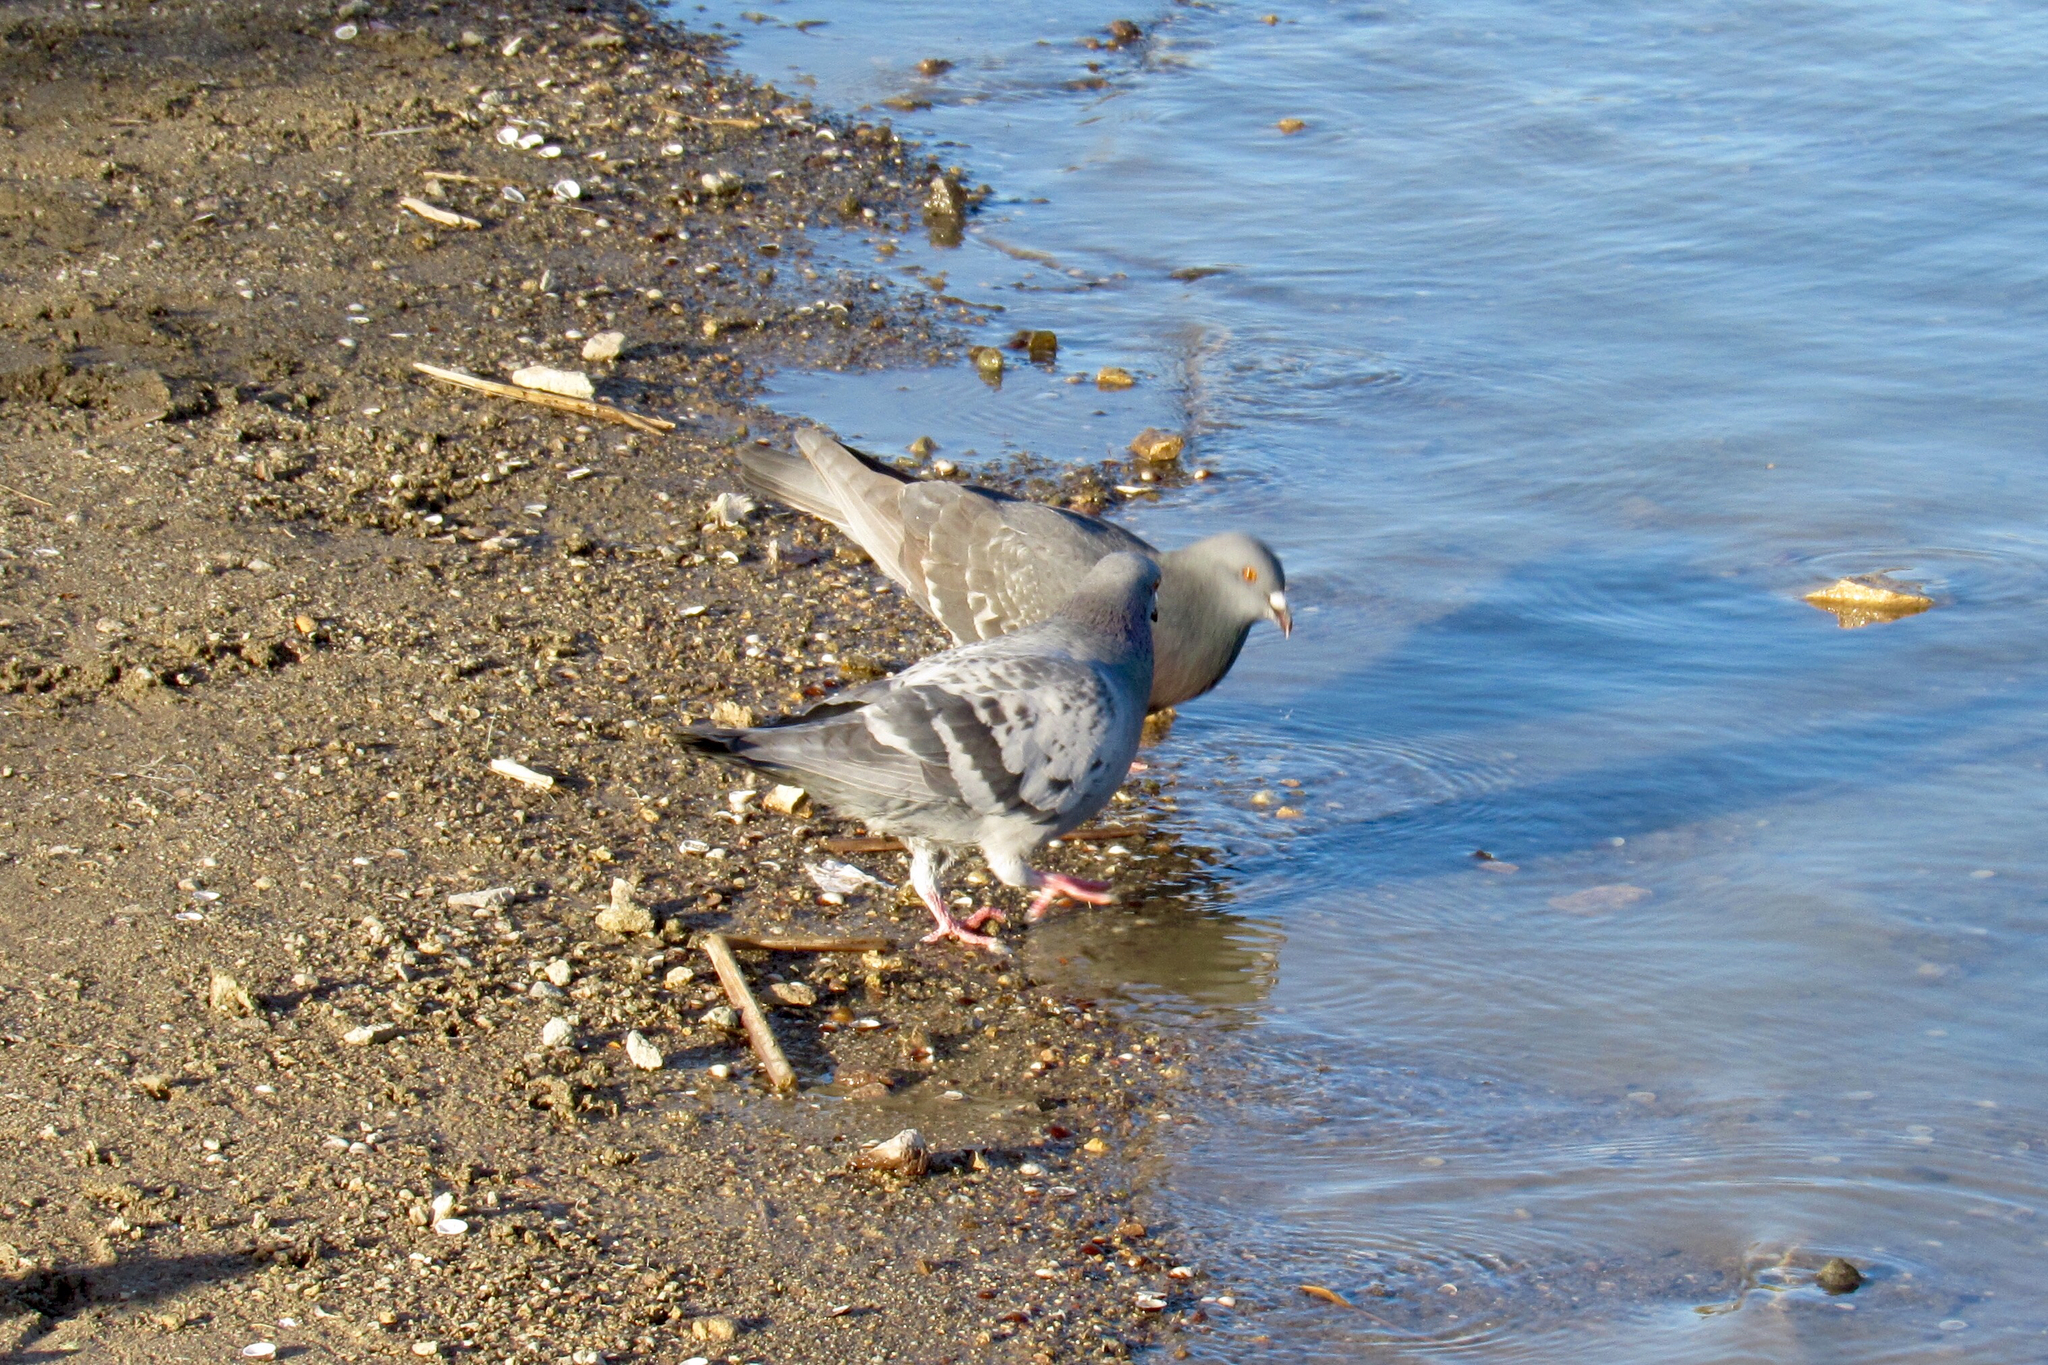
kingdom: Animalia
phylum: Chordata
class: Aves
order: Columbiformes
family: Columbidae
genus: Columba
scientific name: Columba livia
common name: Rock pigeon
